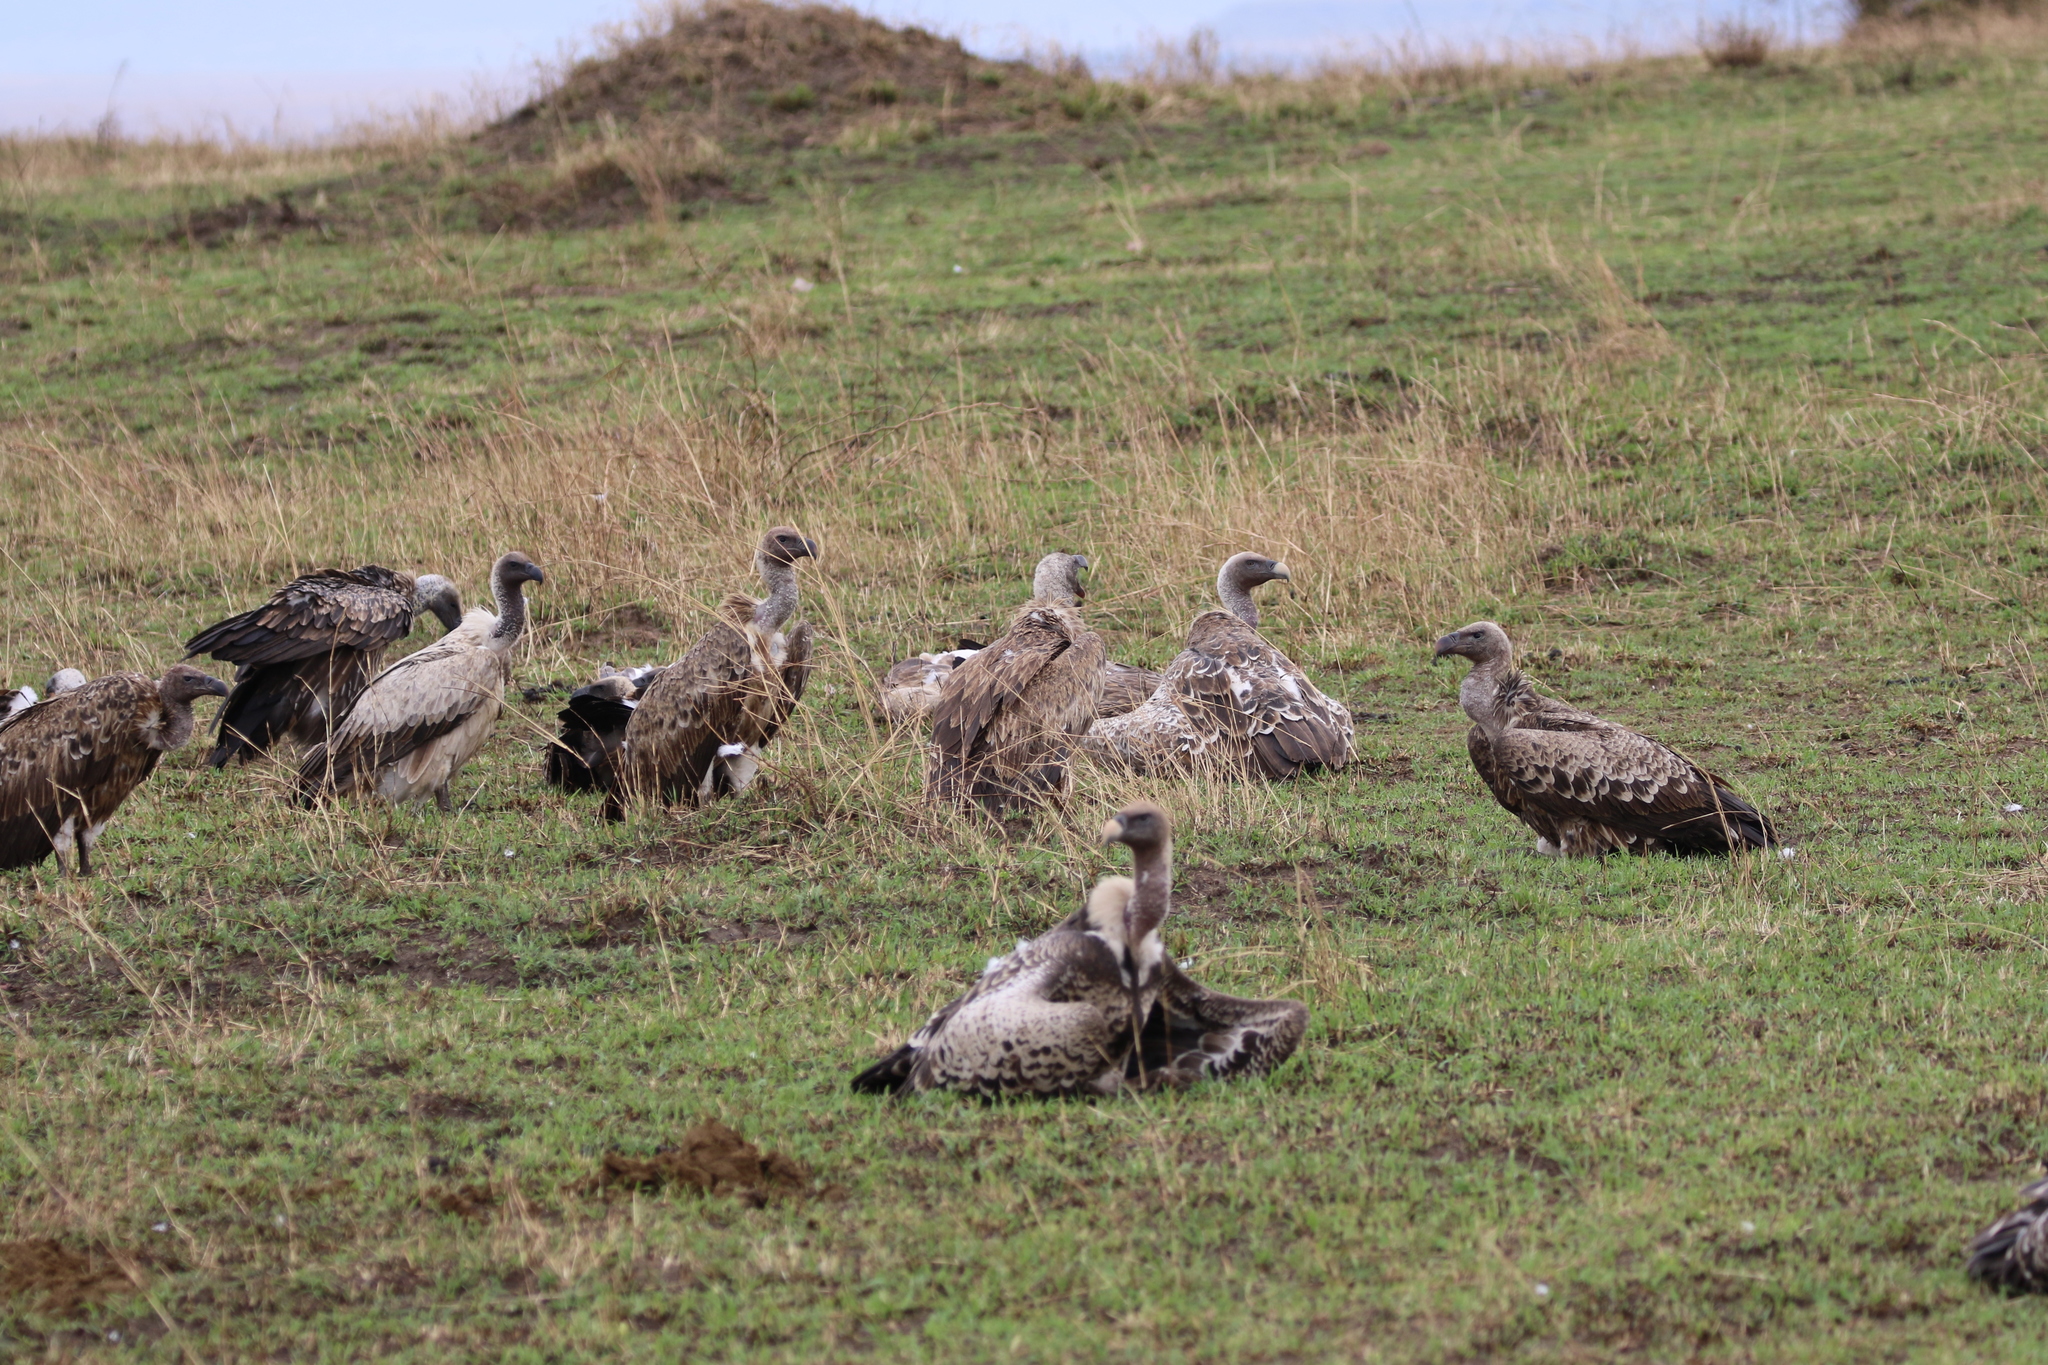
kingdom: Animalia
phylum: Chordata
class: Aves
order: Accipitriformes
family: Accipitridae
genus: Gyps
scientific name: Gyps africanus
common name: White-backed vulture
